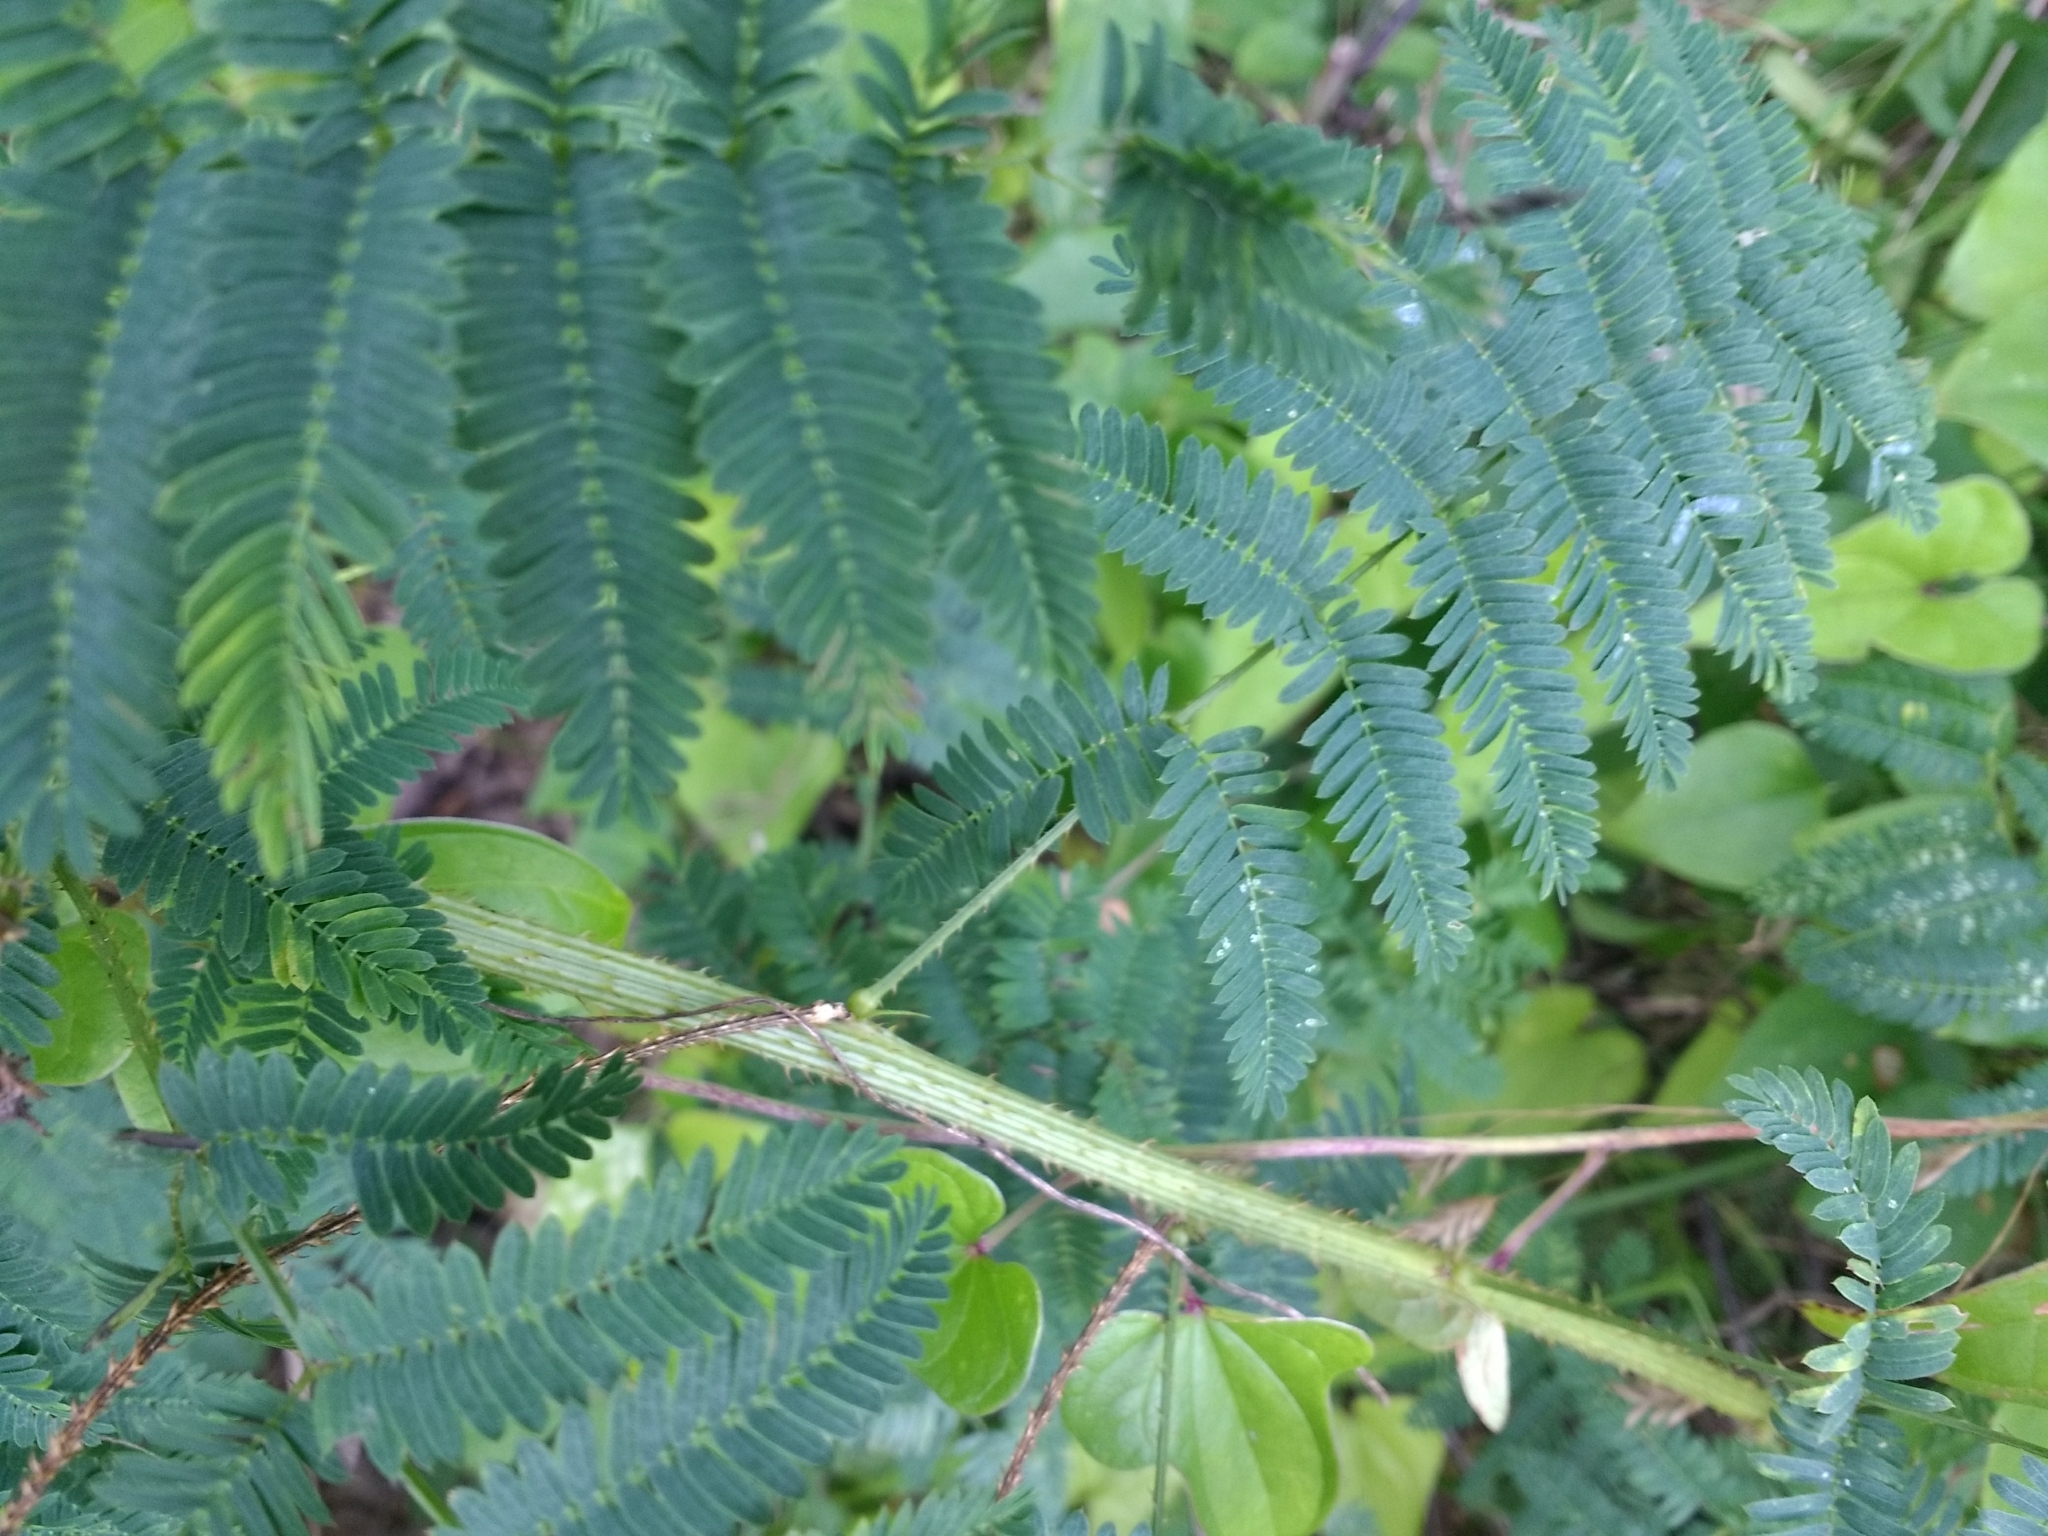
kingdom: Plantae
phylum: Tracheophyta
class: Magnoliopsida
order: Fabales
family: Fabaceae
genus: Mimosa
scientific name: Mimosa quadrivalvis
